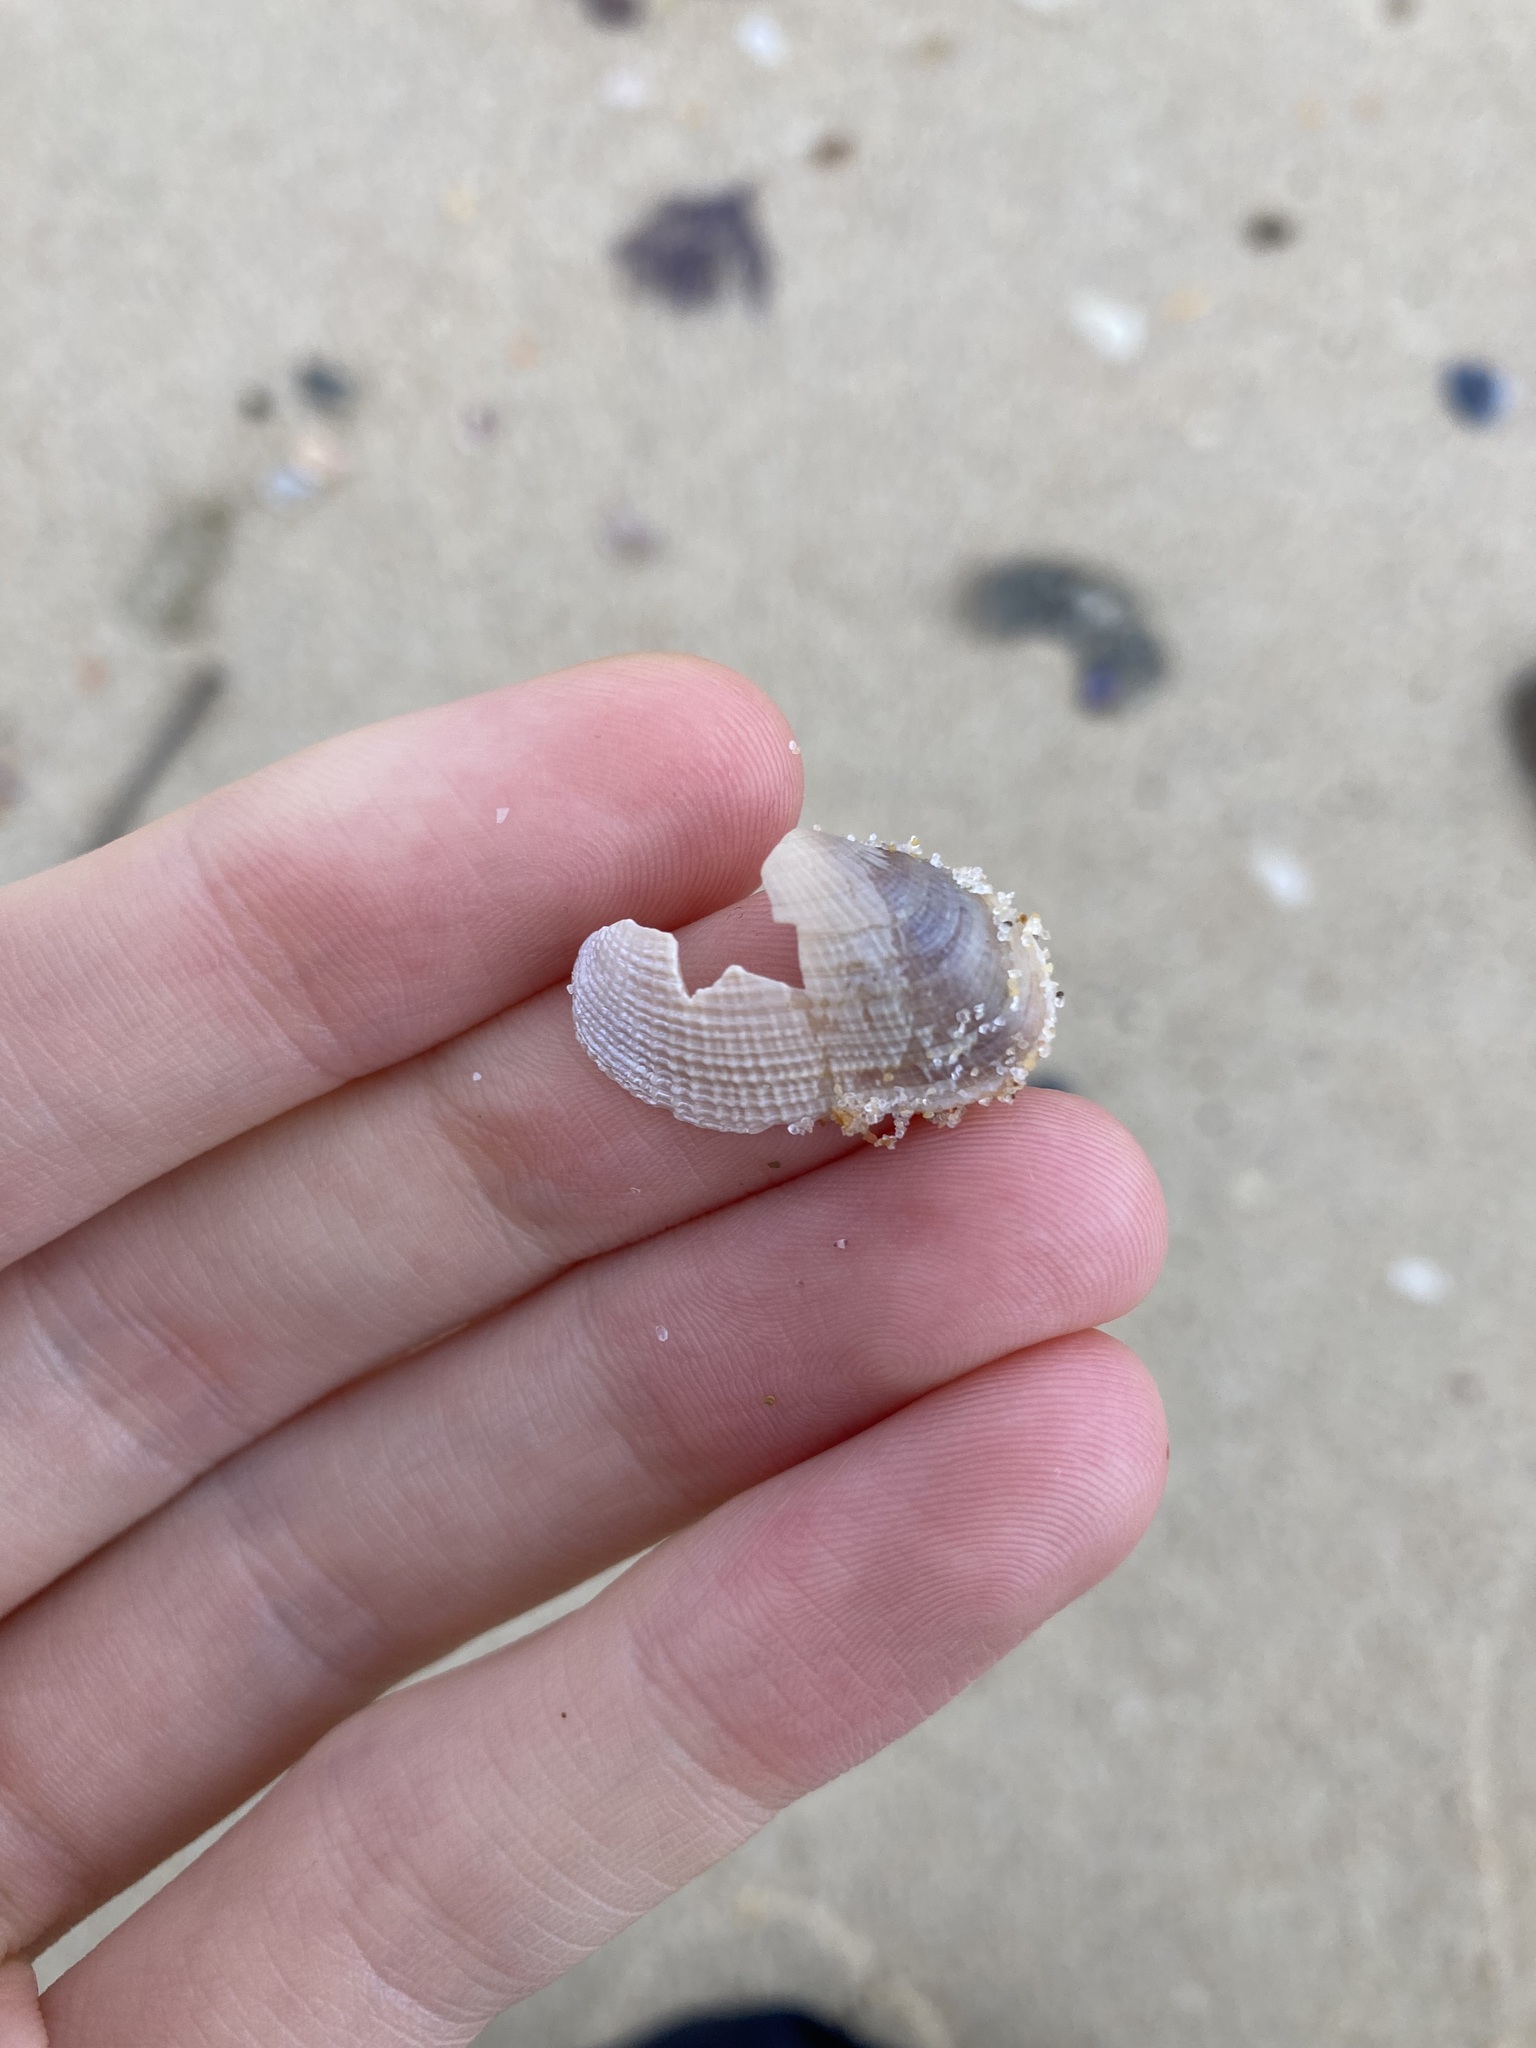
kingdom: Animalia
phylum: Mollusca
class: Bivalvia
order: Venerida
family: Veneridae
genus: Irus
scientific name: Irus crenatus
